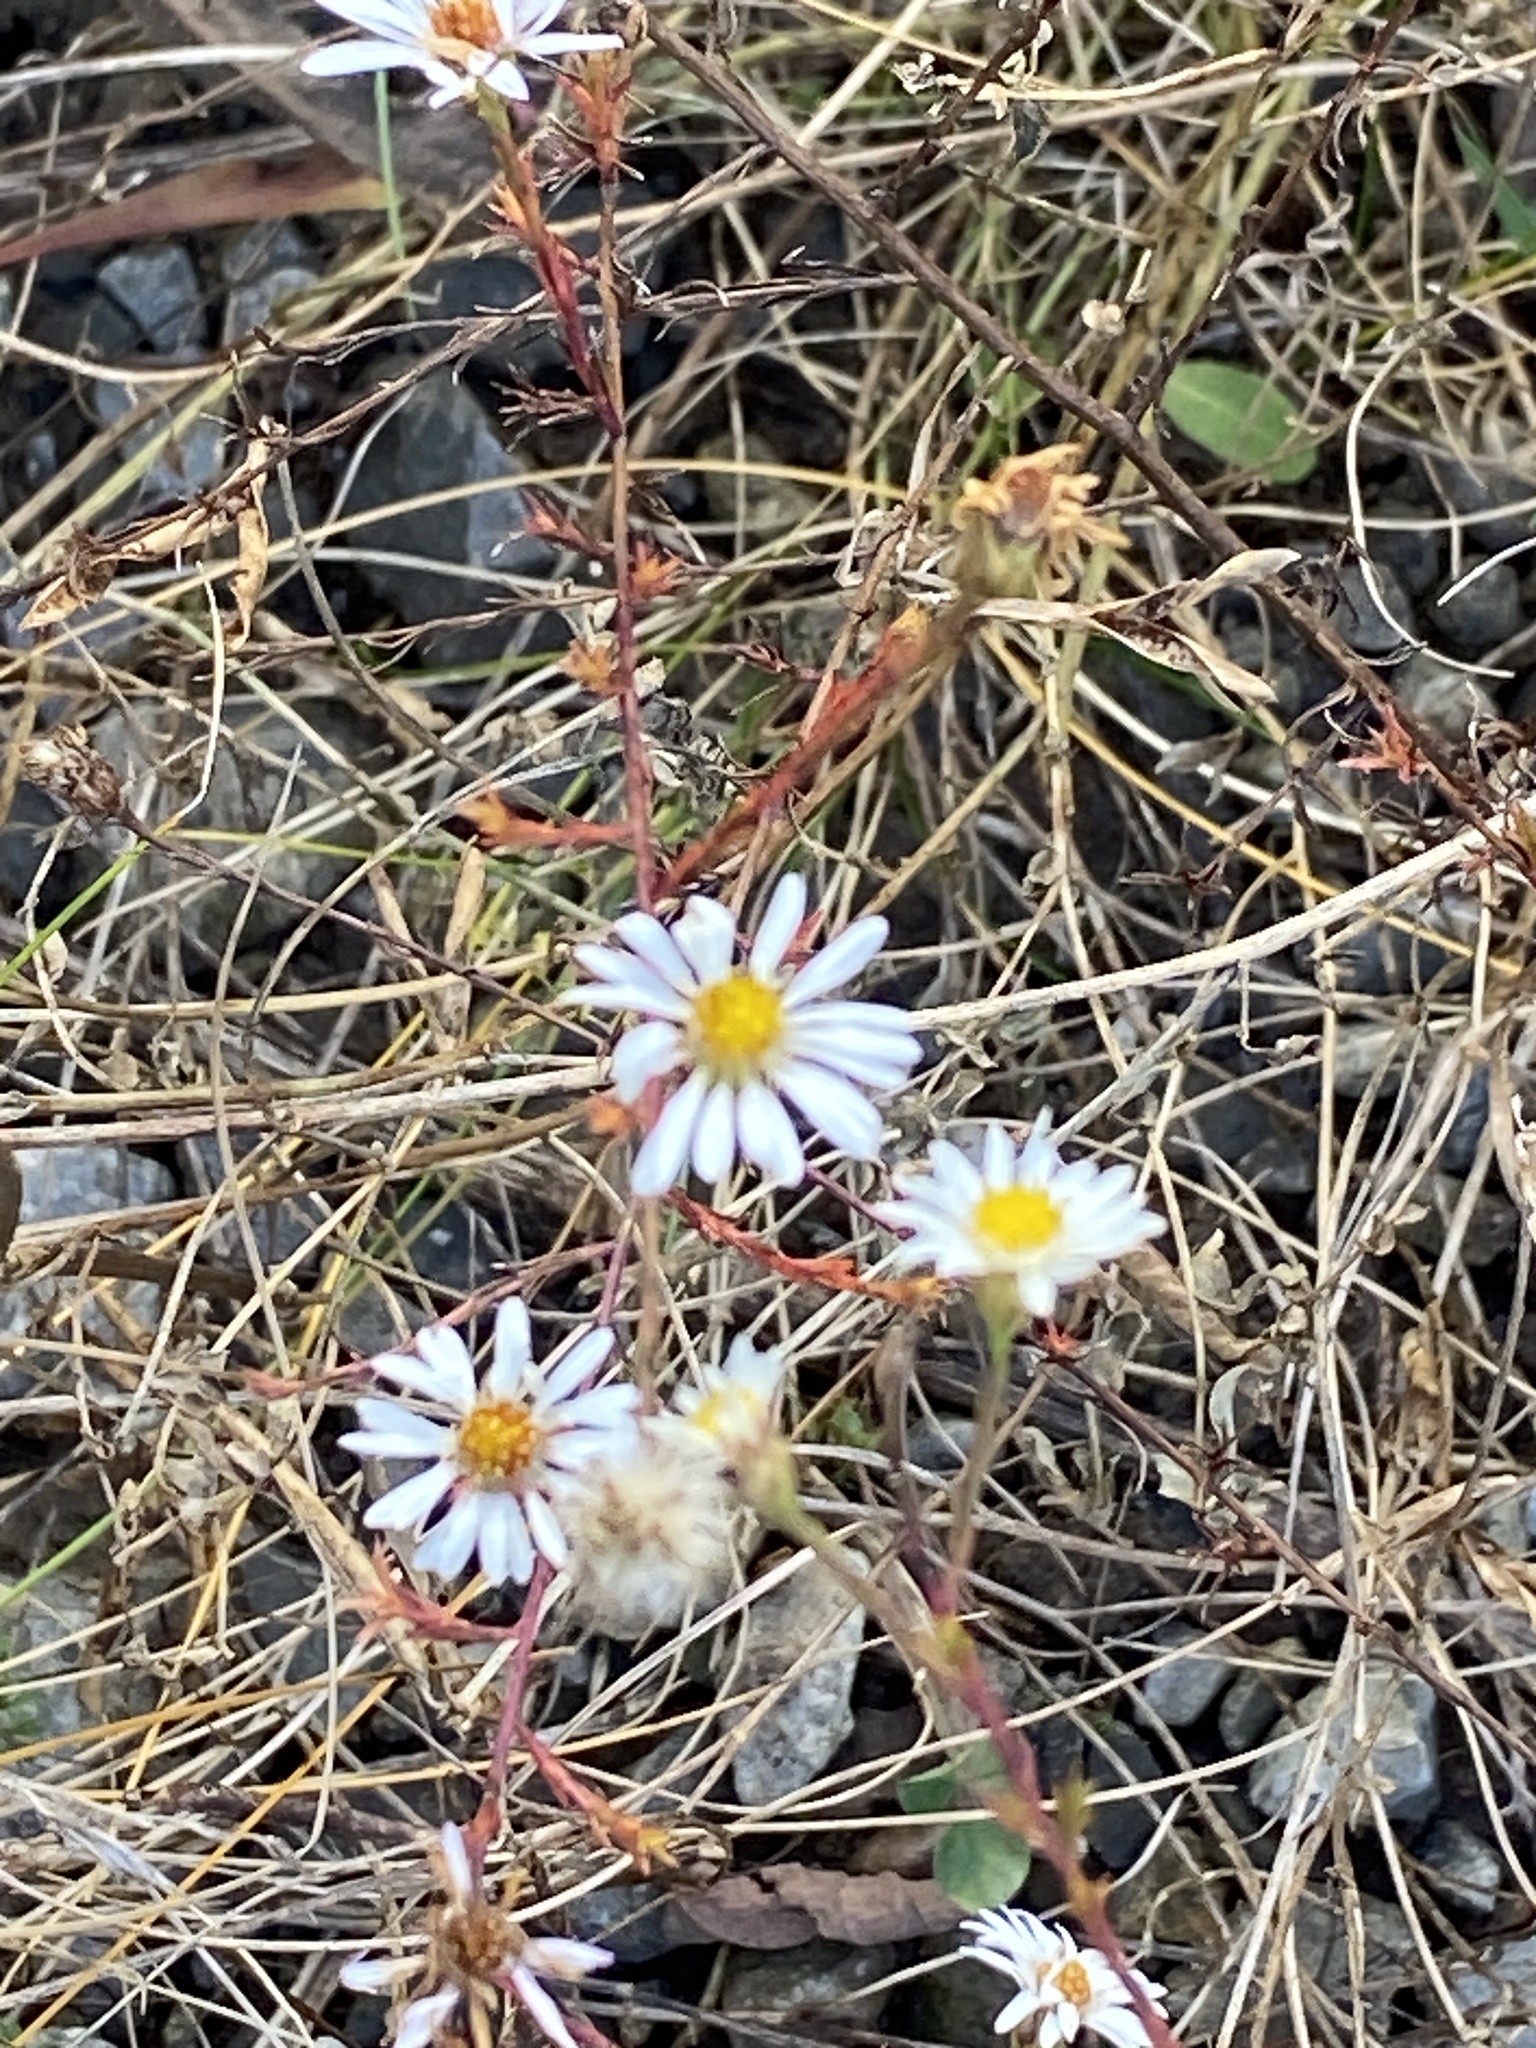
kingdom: Plantae
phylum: Tracheophyta
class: Magnoliopsida
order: Asterales
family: Asteraceae
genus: Symphyotrichum
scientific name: Symphyotrichum pilosum
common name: Awl aster
